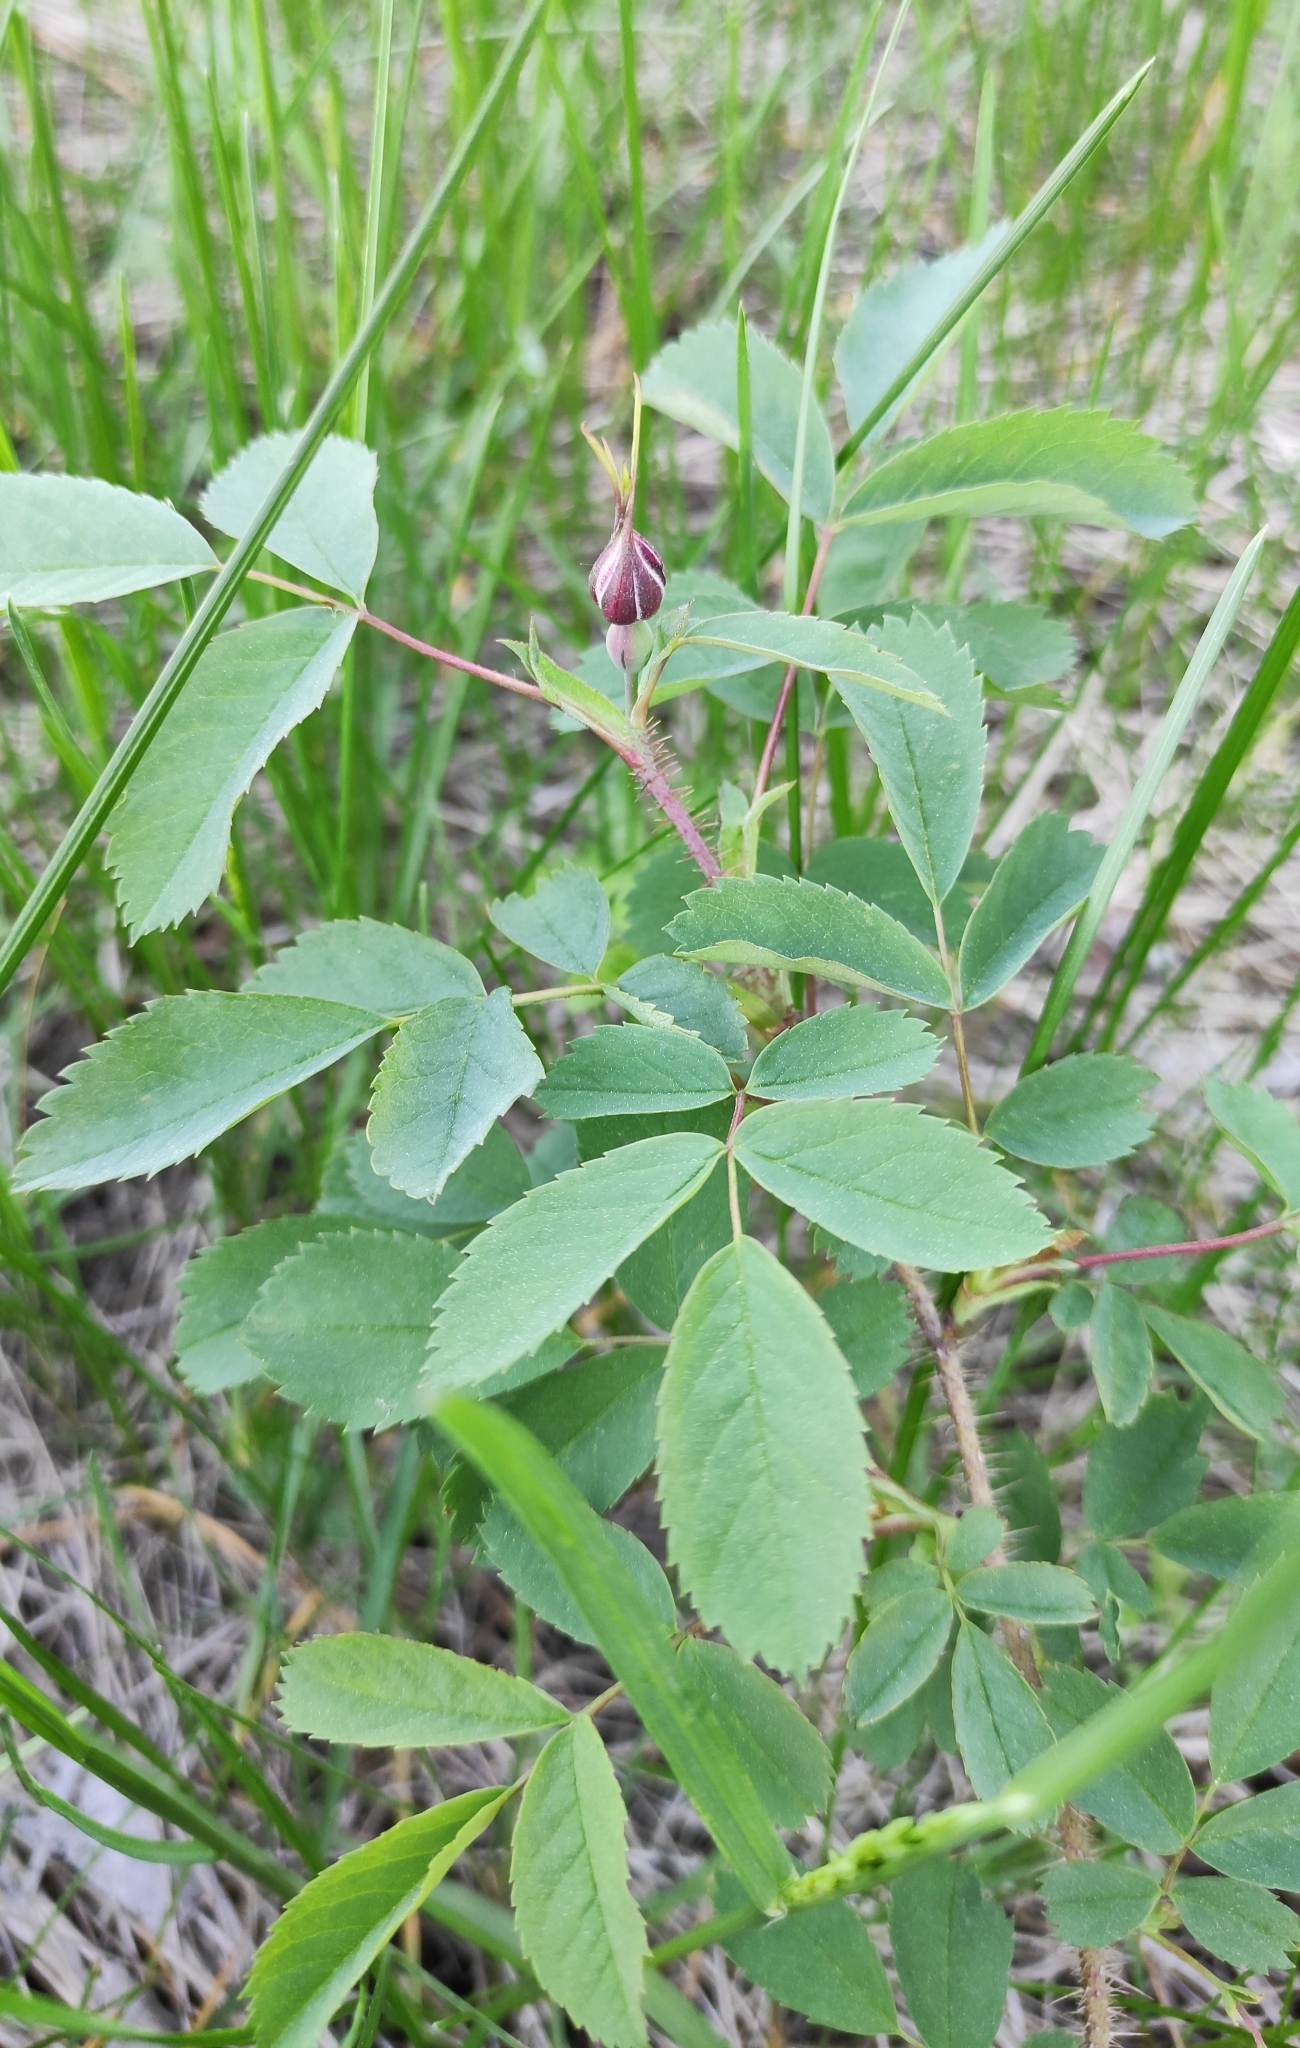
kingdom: Plantae
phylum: Tracheophyta
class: Magnoliopsida
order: Rosales
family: Rosaceae
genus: Rosa
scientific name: Rosa acicularis
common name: Prickly rose
